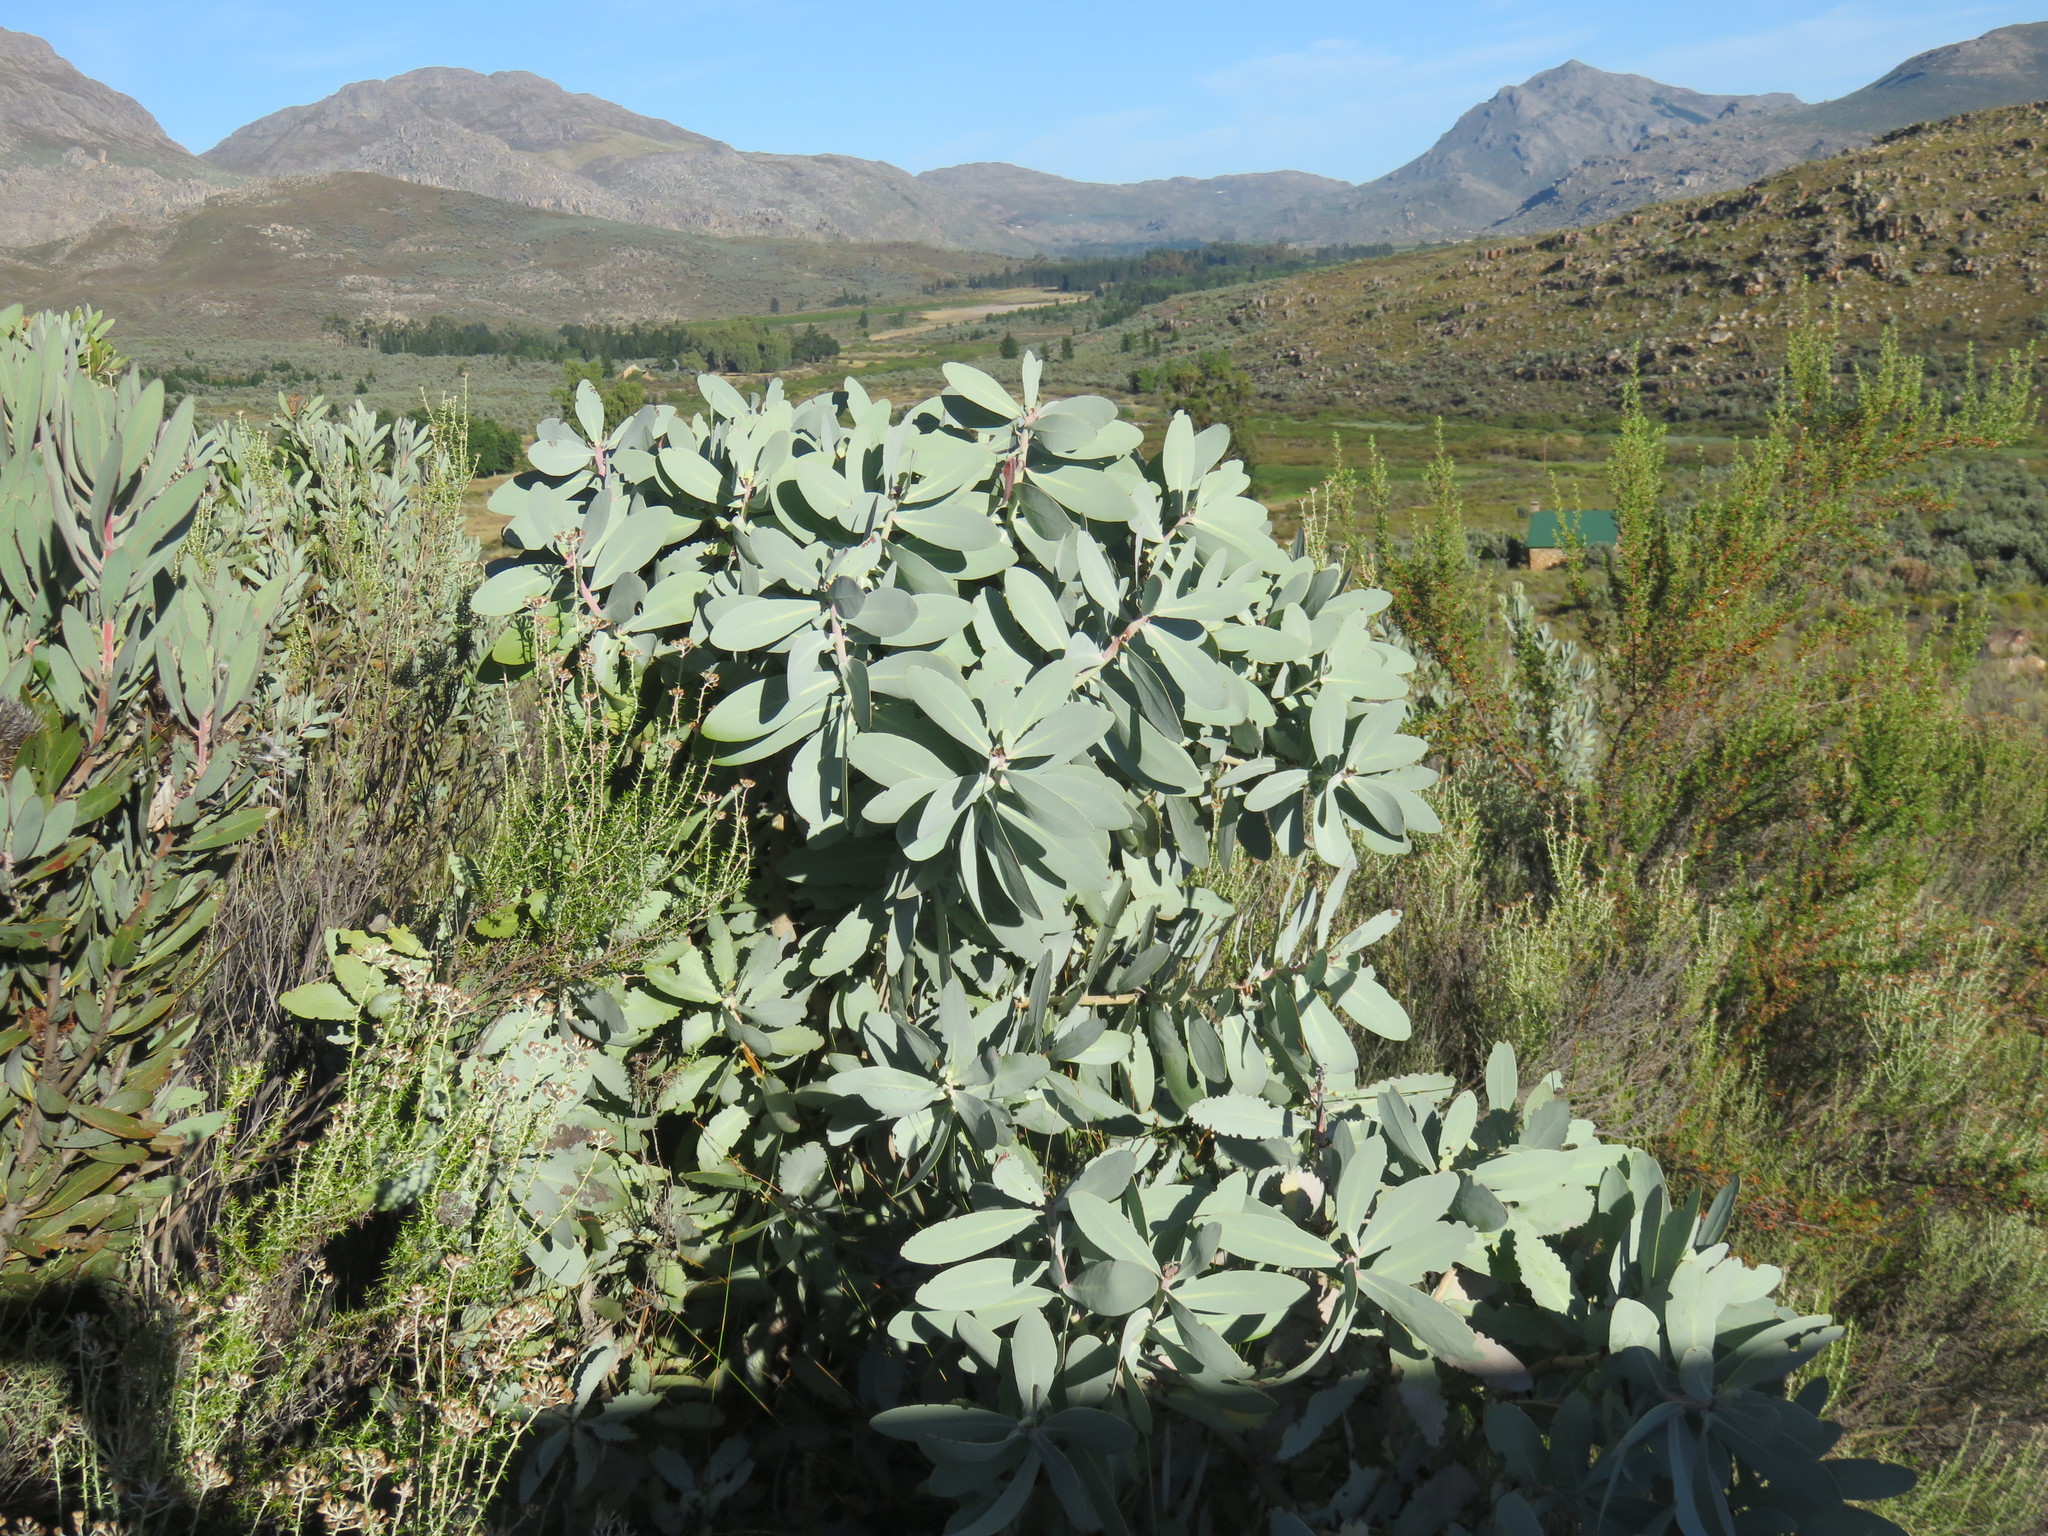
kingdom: Plantae
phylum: Tracheophyta
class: Magnoliopsida
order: Proteales
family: Proteaceae
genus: Protea
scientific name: Protea nitida
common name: Tree protea
